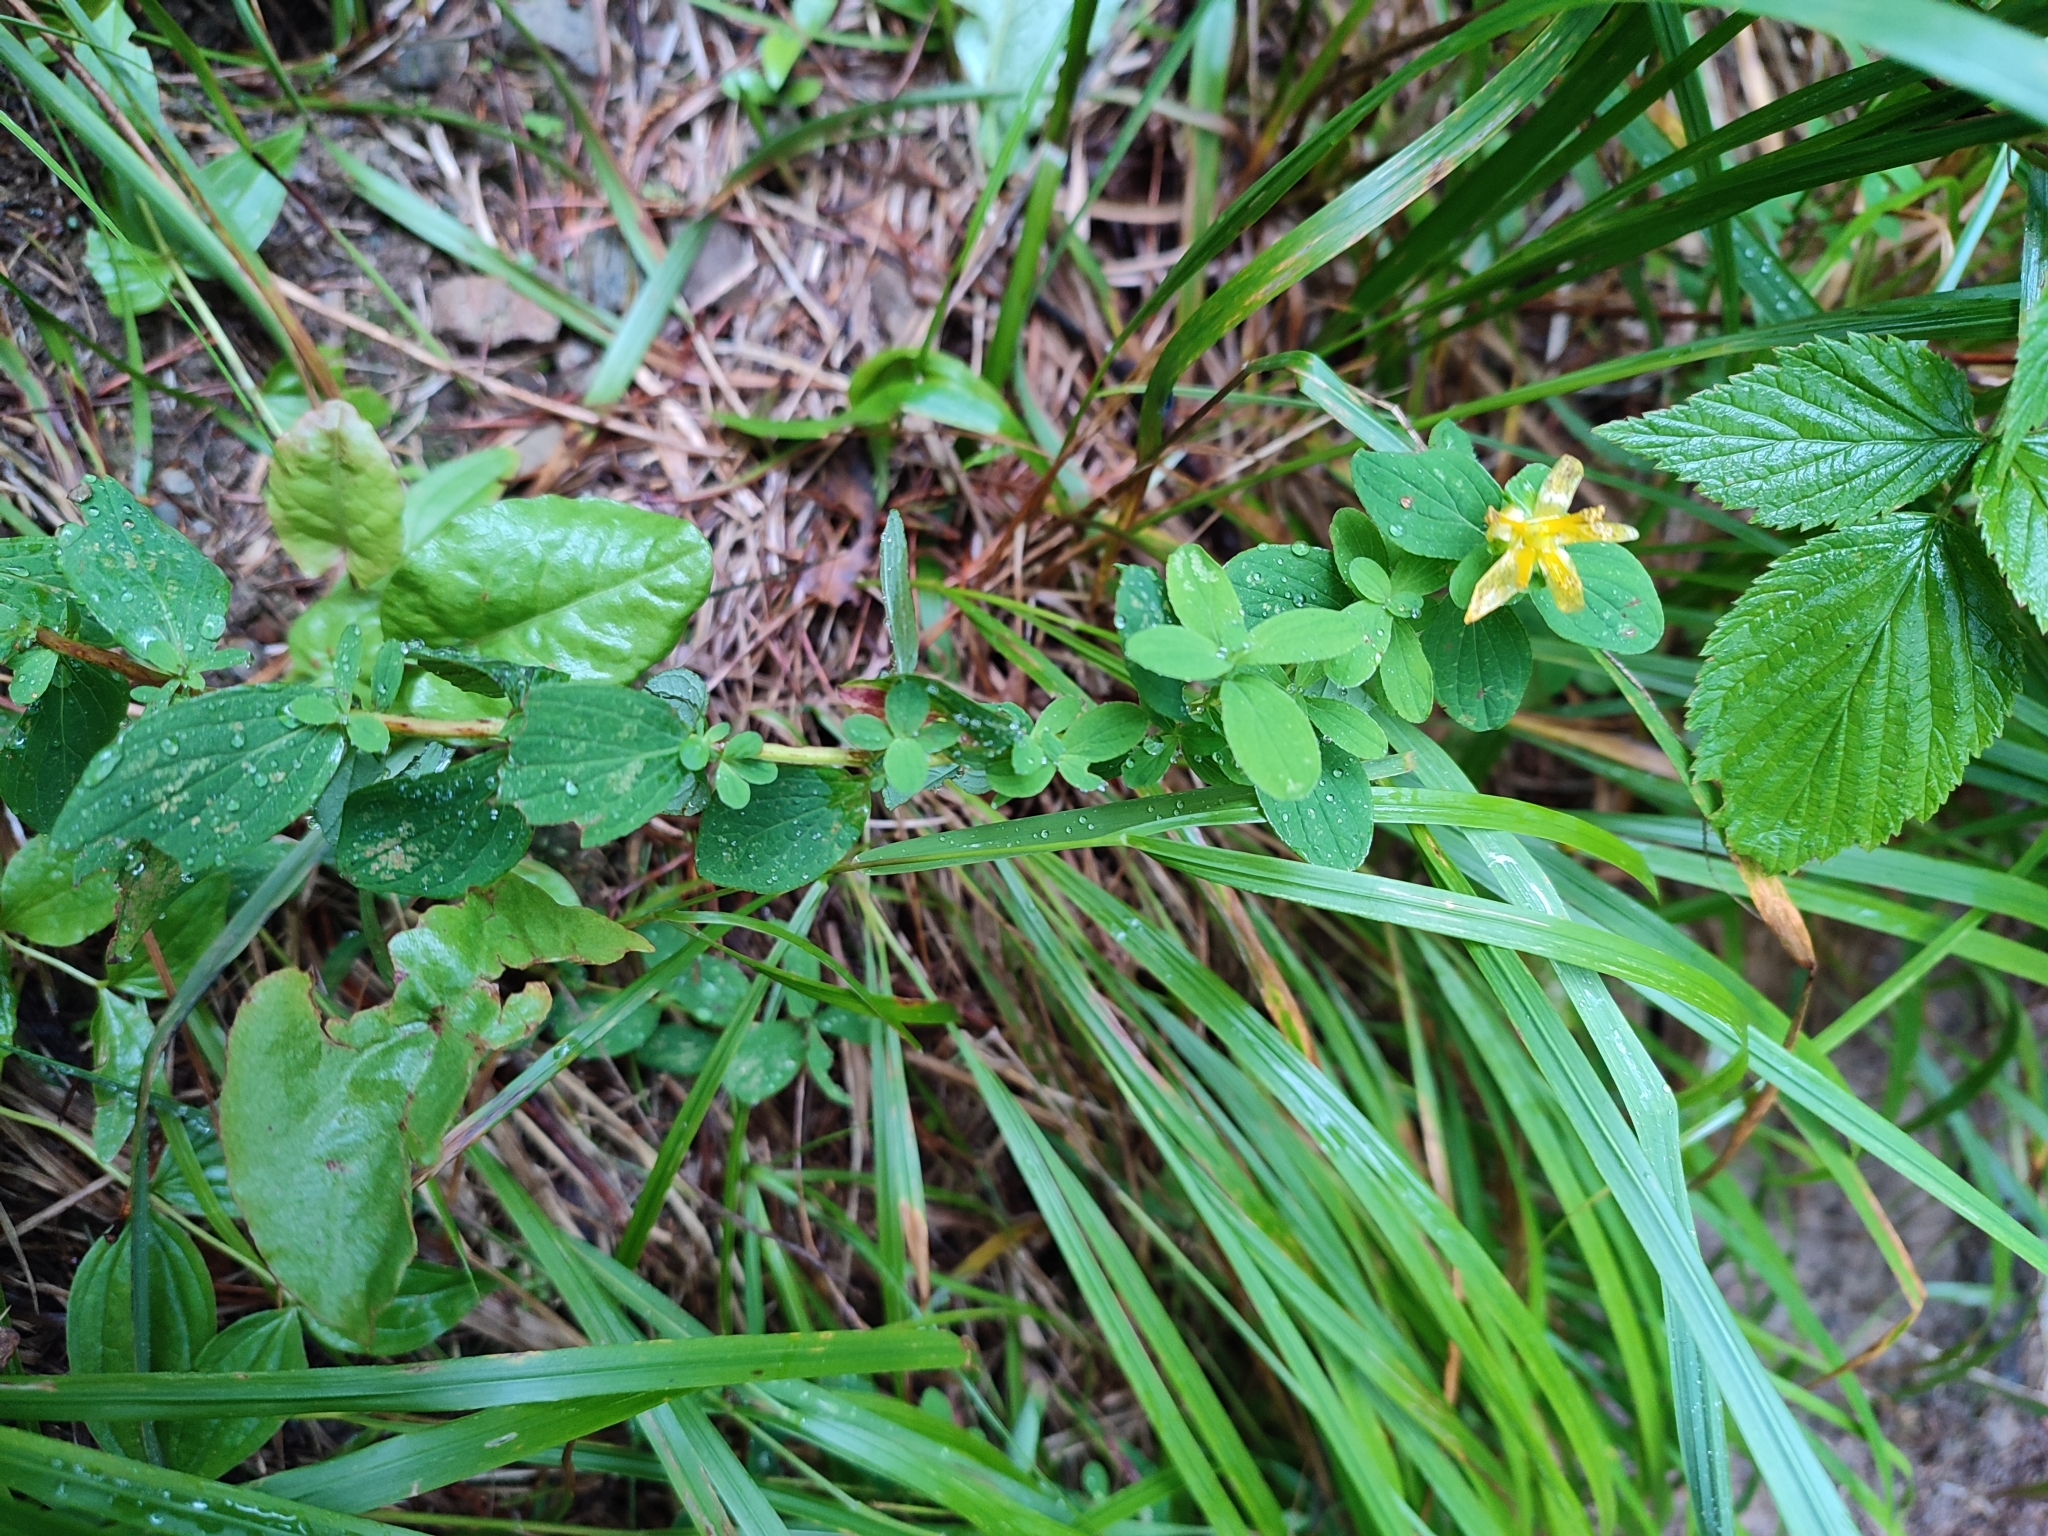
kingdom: Plantae
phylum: Tracheophyta
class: Magnoliopsida
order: Malpighiales
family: Hypericaceae
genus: Hypericum
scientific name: Hypericum maculatum
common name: Imperforate st. john's-wort
